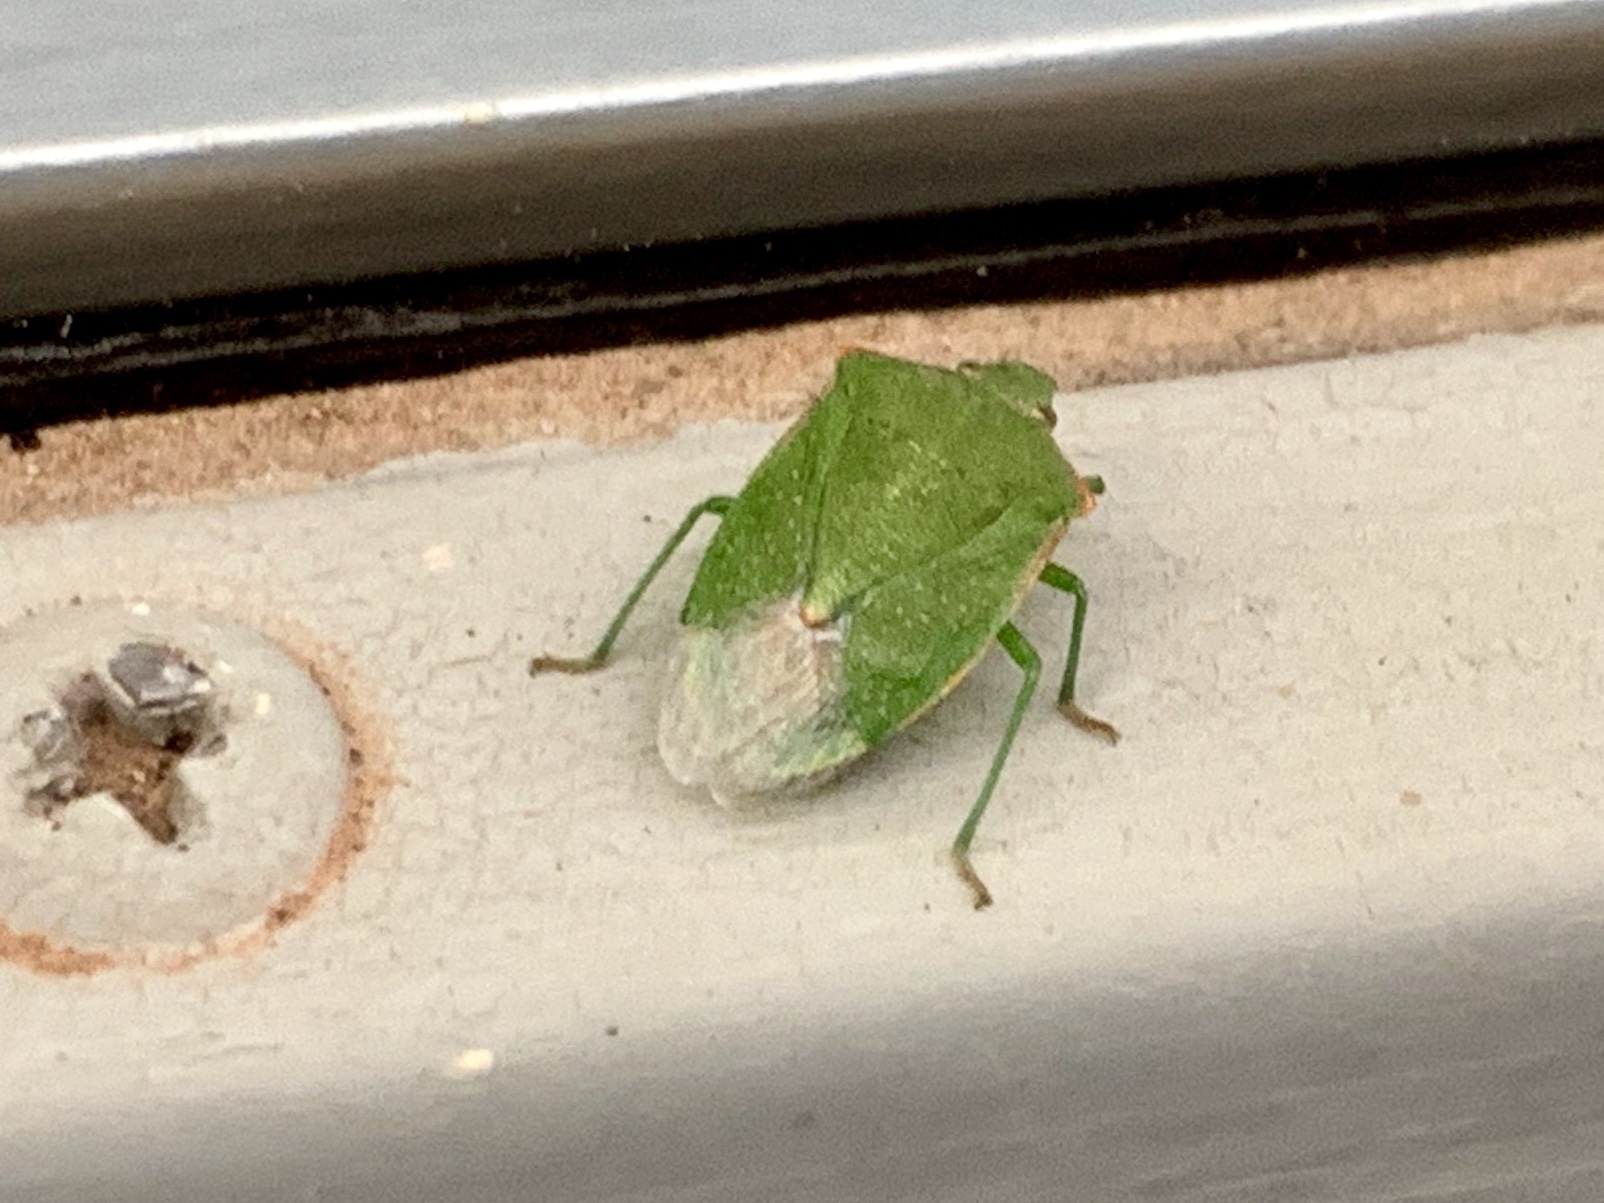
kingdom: Animalia
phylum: Arthropoda
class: Insecta
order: Hemiptera
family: Pentatomidae
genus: Thyanta
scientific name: Thyanta custator
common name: Stink bug
